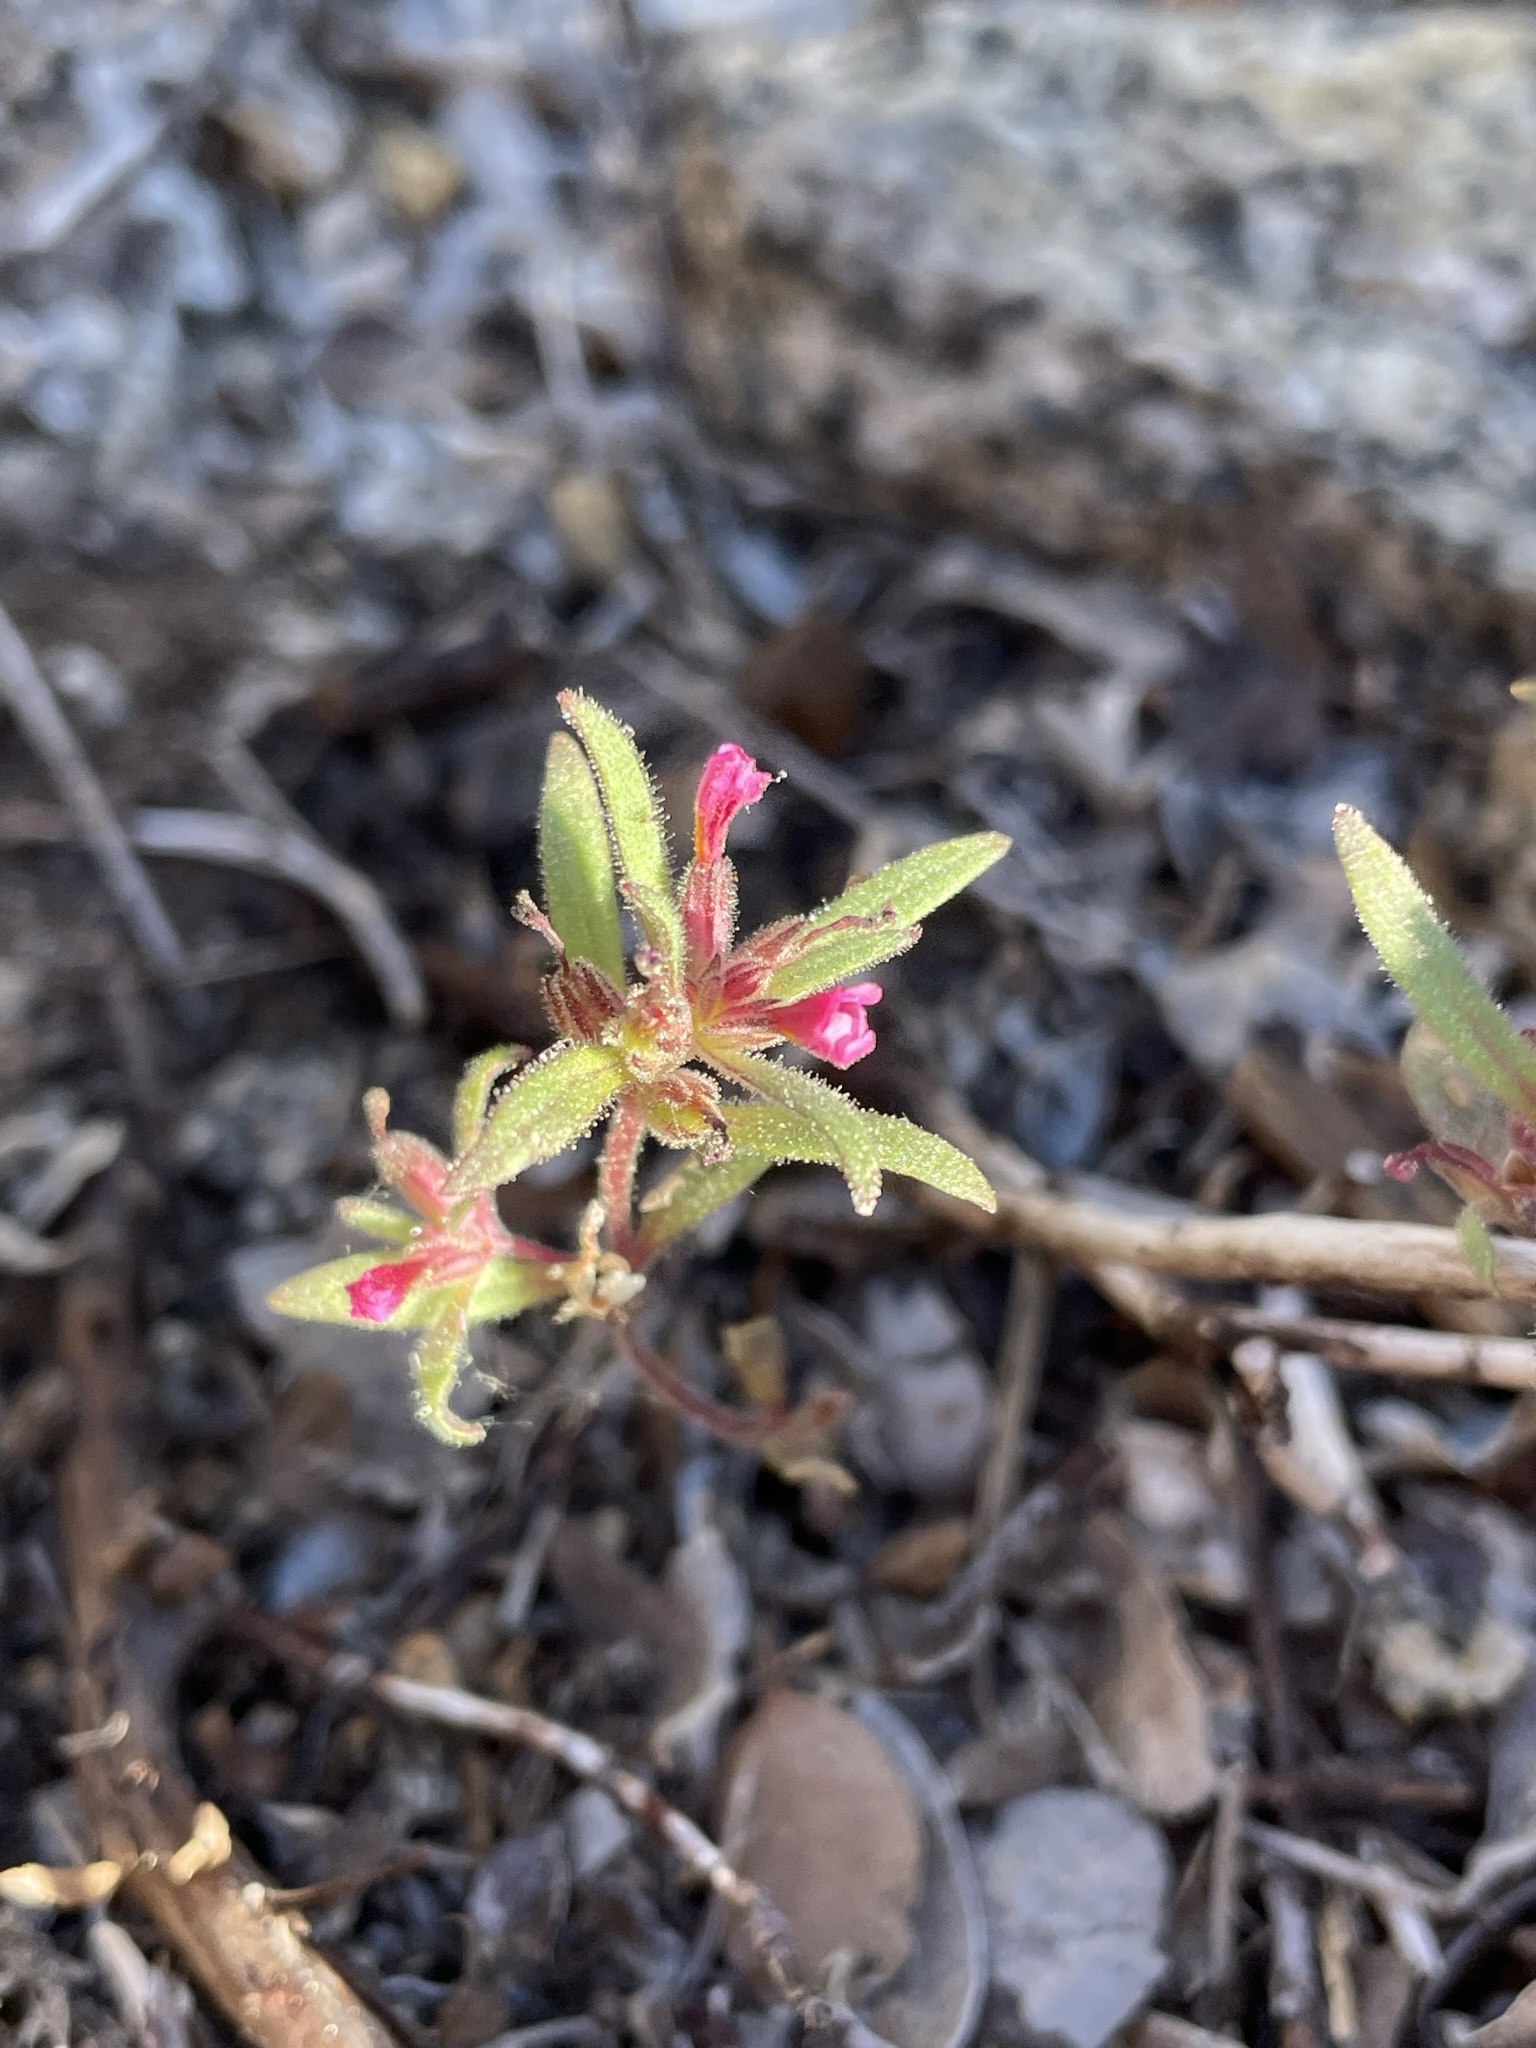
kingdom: Plantae
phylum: Tracheophyta
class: Magnoliopsida
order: Lamiales
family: Phrymaceae
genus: Diplacus
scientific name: Diplacus leptaleus
